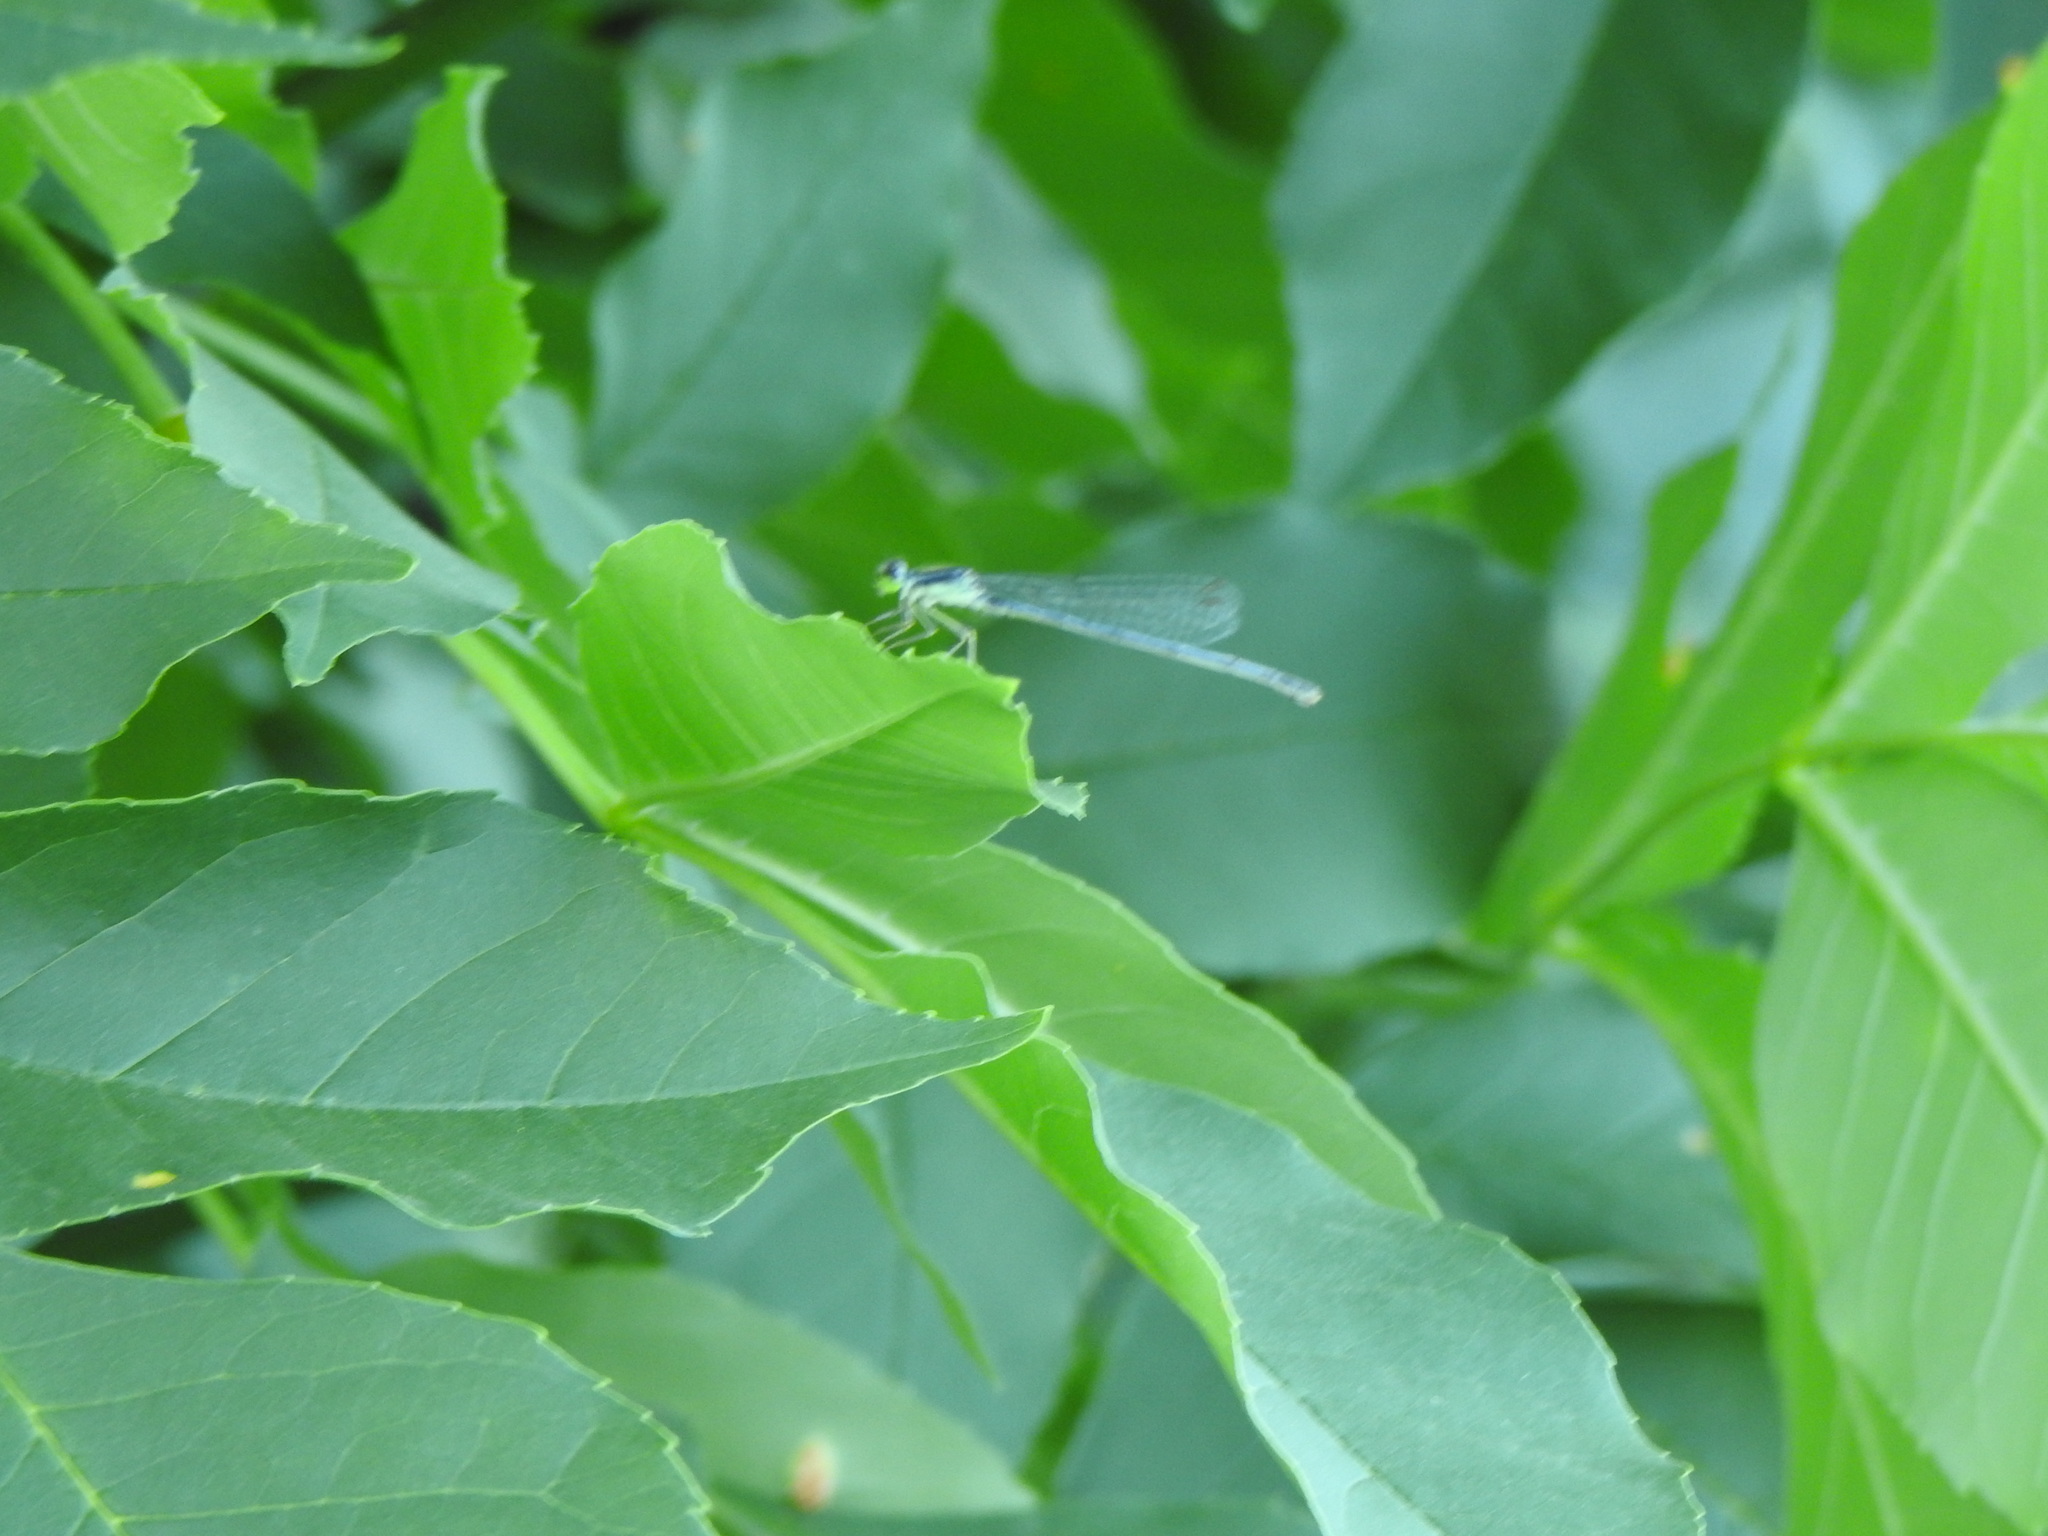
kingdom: Animalia
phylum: Arthropoda
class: Insecta
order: Odonata
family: Coenagrionidae
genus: Ischnura
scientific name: Ischnura verticalis
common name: Eastern forktail
